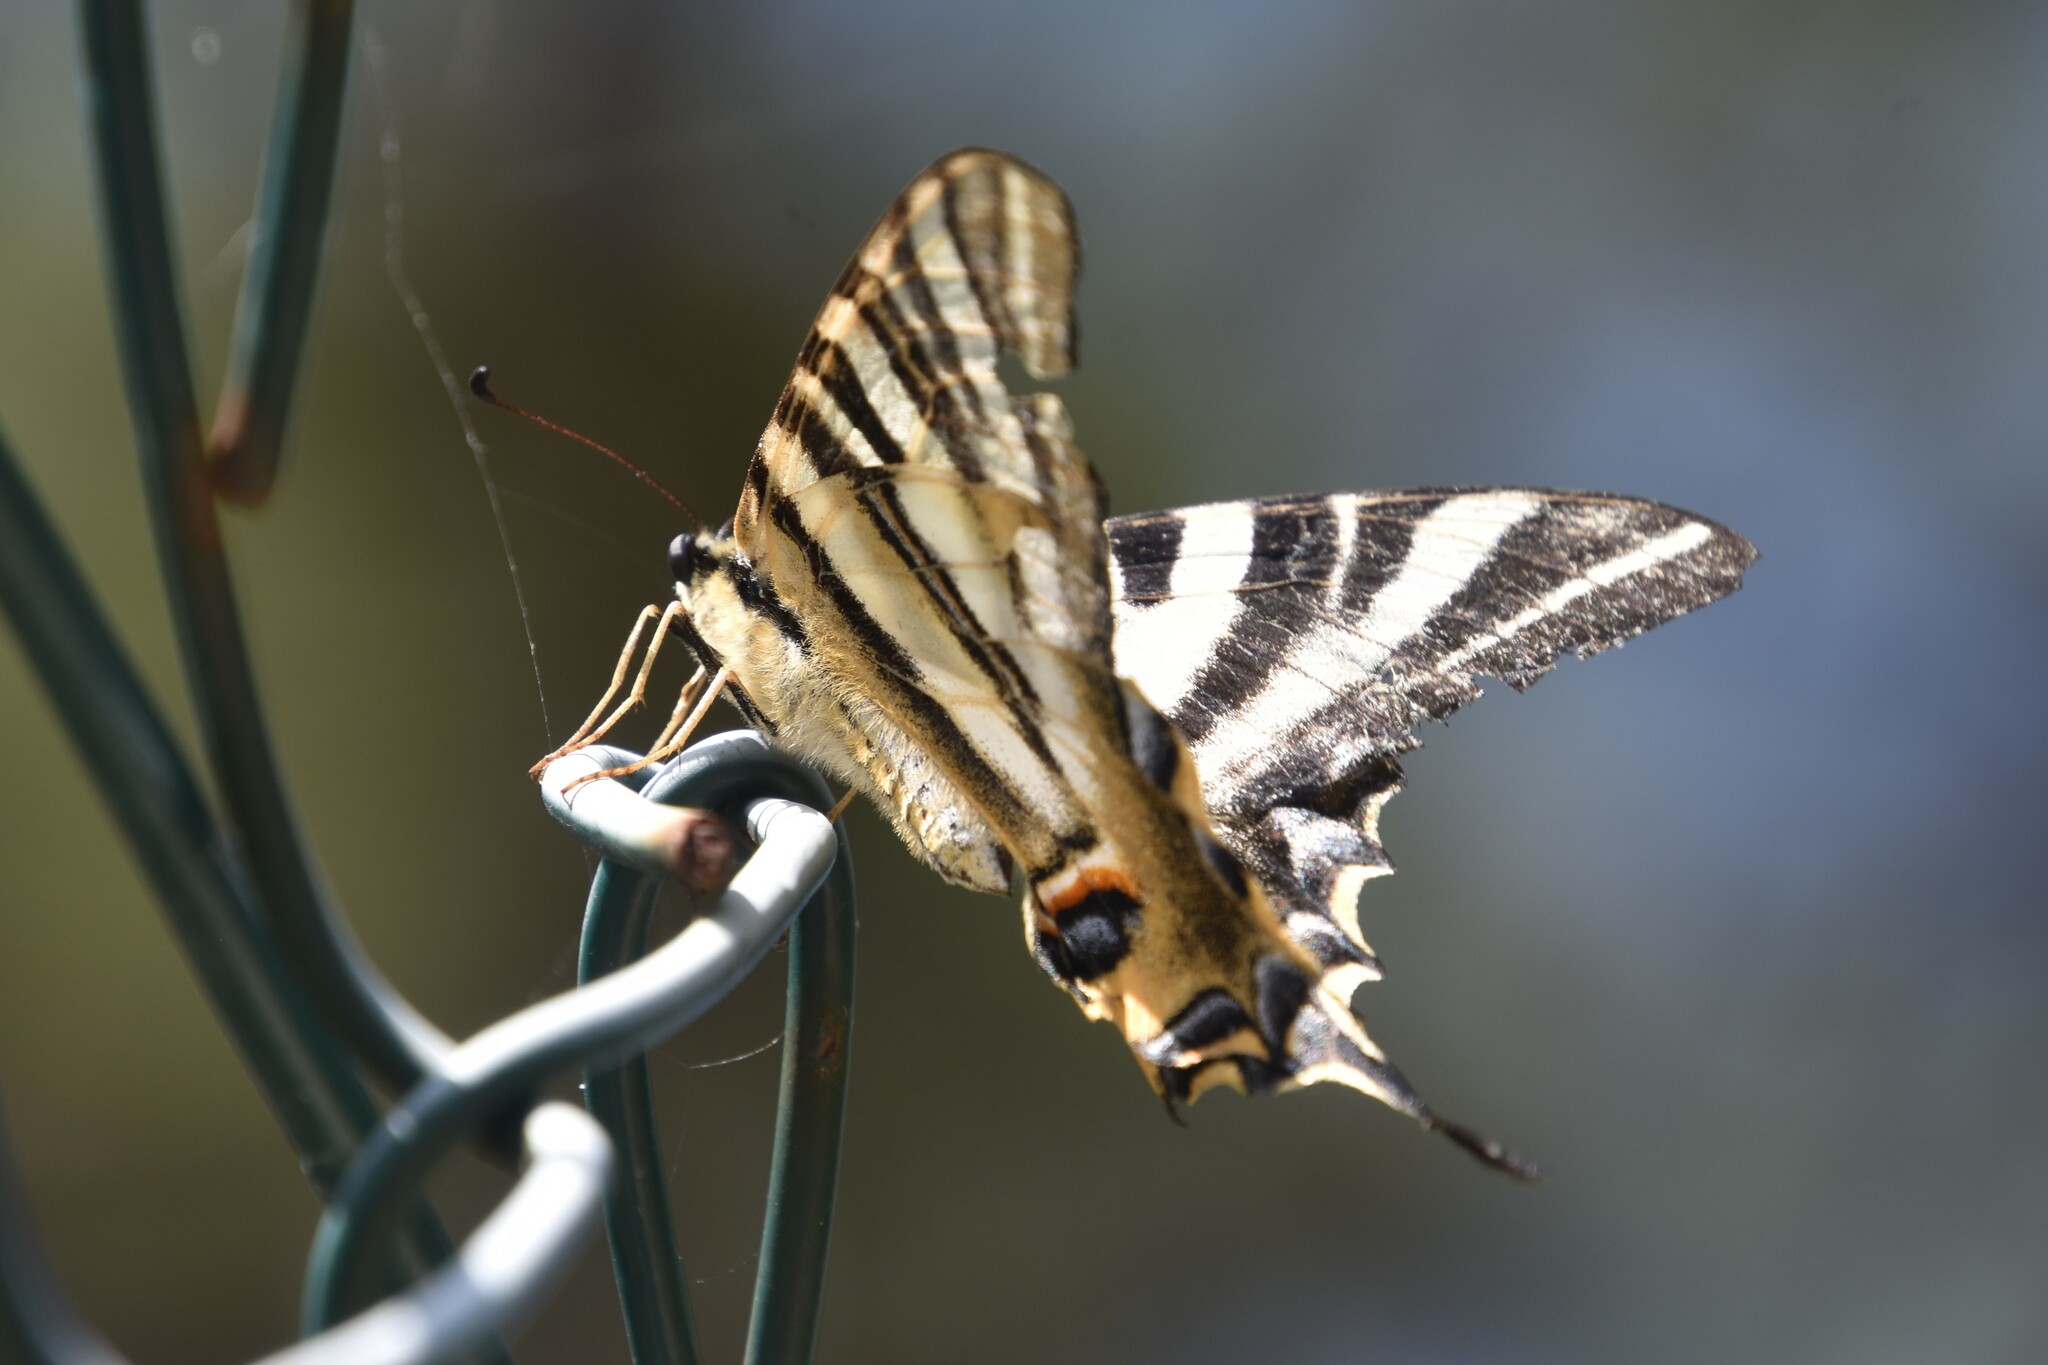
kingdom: Animalia
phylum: Arthropoda
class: Insecta
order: Lepidoptera
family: Papilionidae
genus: Iphiclides
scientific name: Iphiclides feisthamelii
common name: Iberian scarce swallowtail
